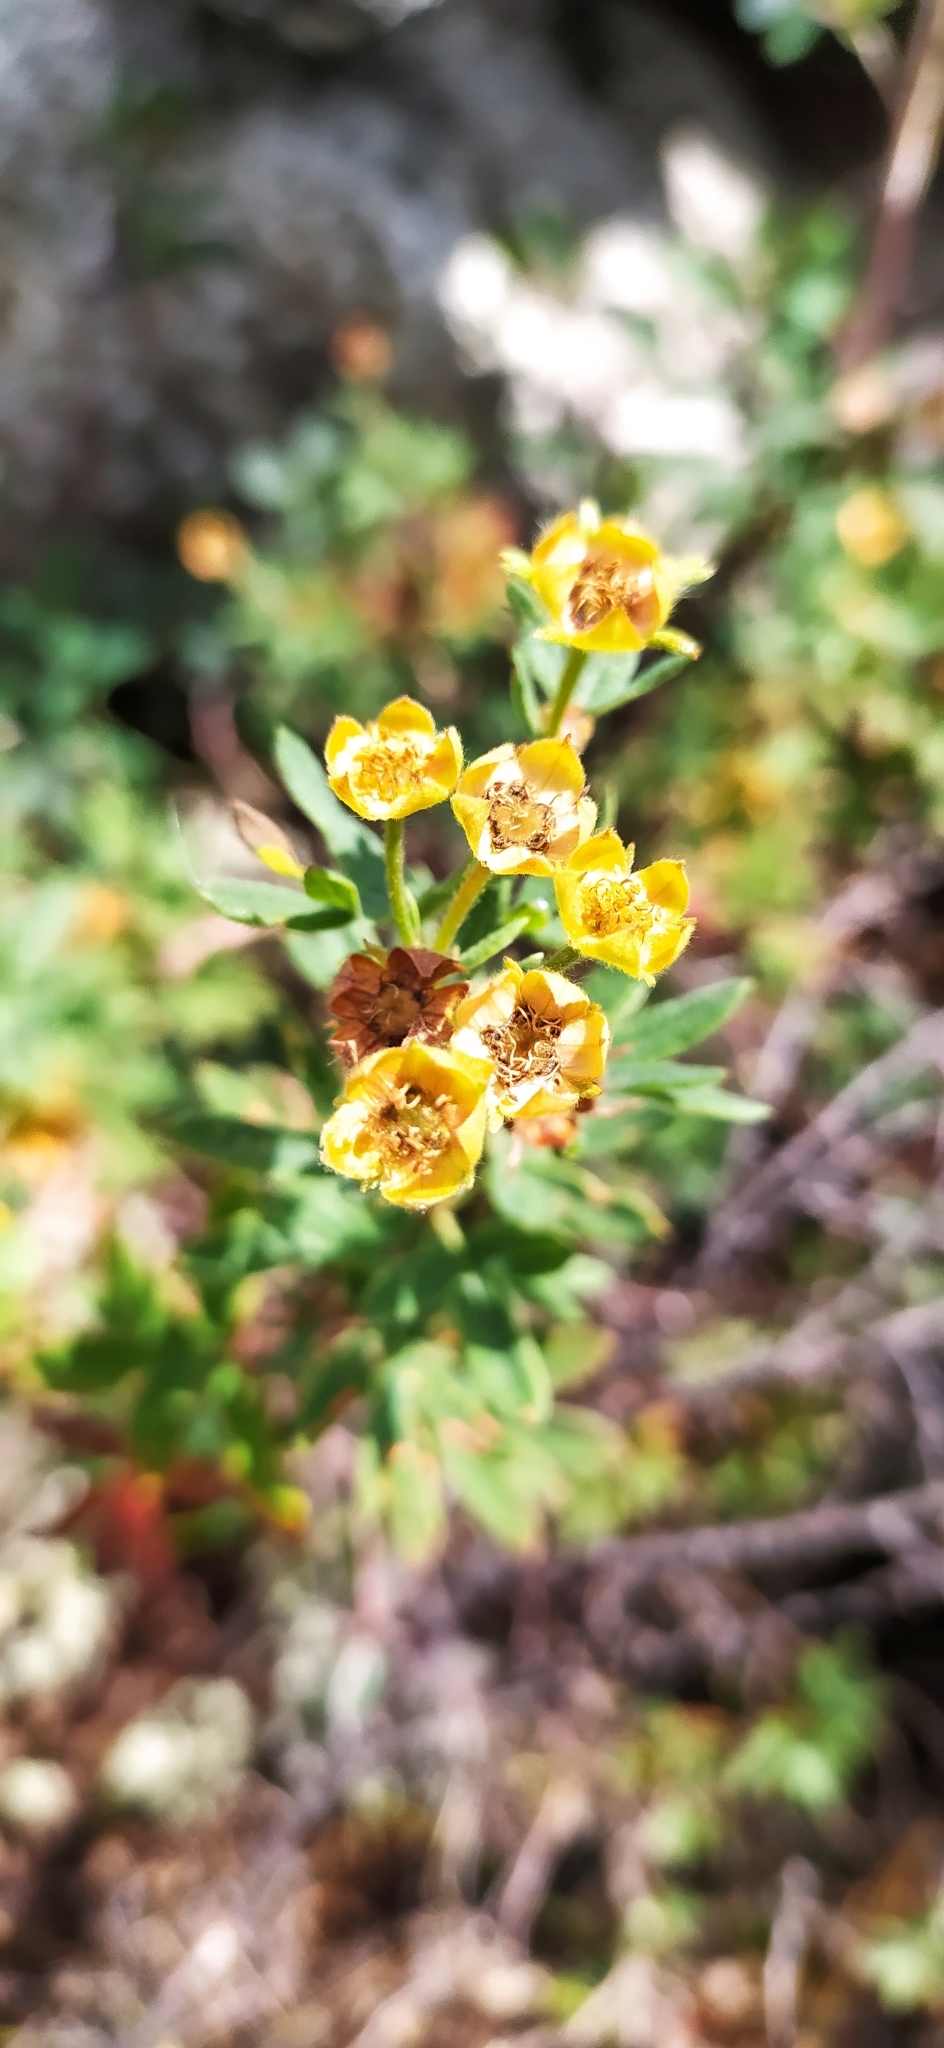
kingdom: Plantae
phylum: Tracheophyta
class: Magnoliopsida
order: Rosales
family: Rosaceae
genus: Dasiphora
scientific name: Dasiphora fruticosa
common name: Shrubby cinquefoil
